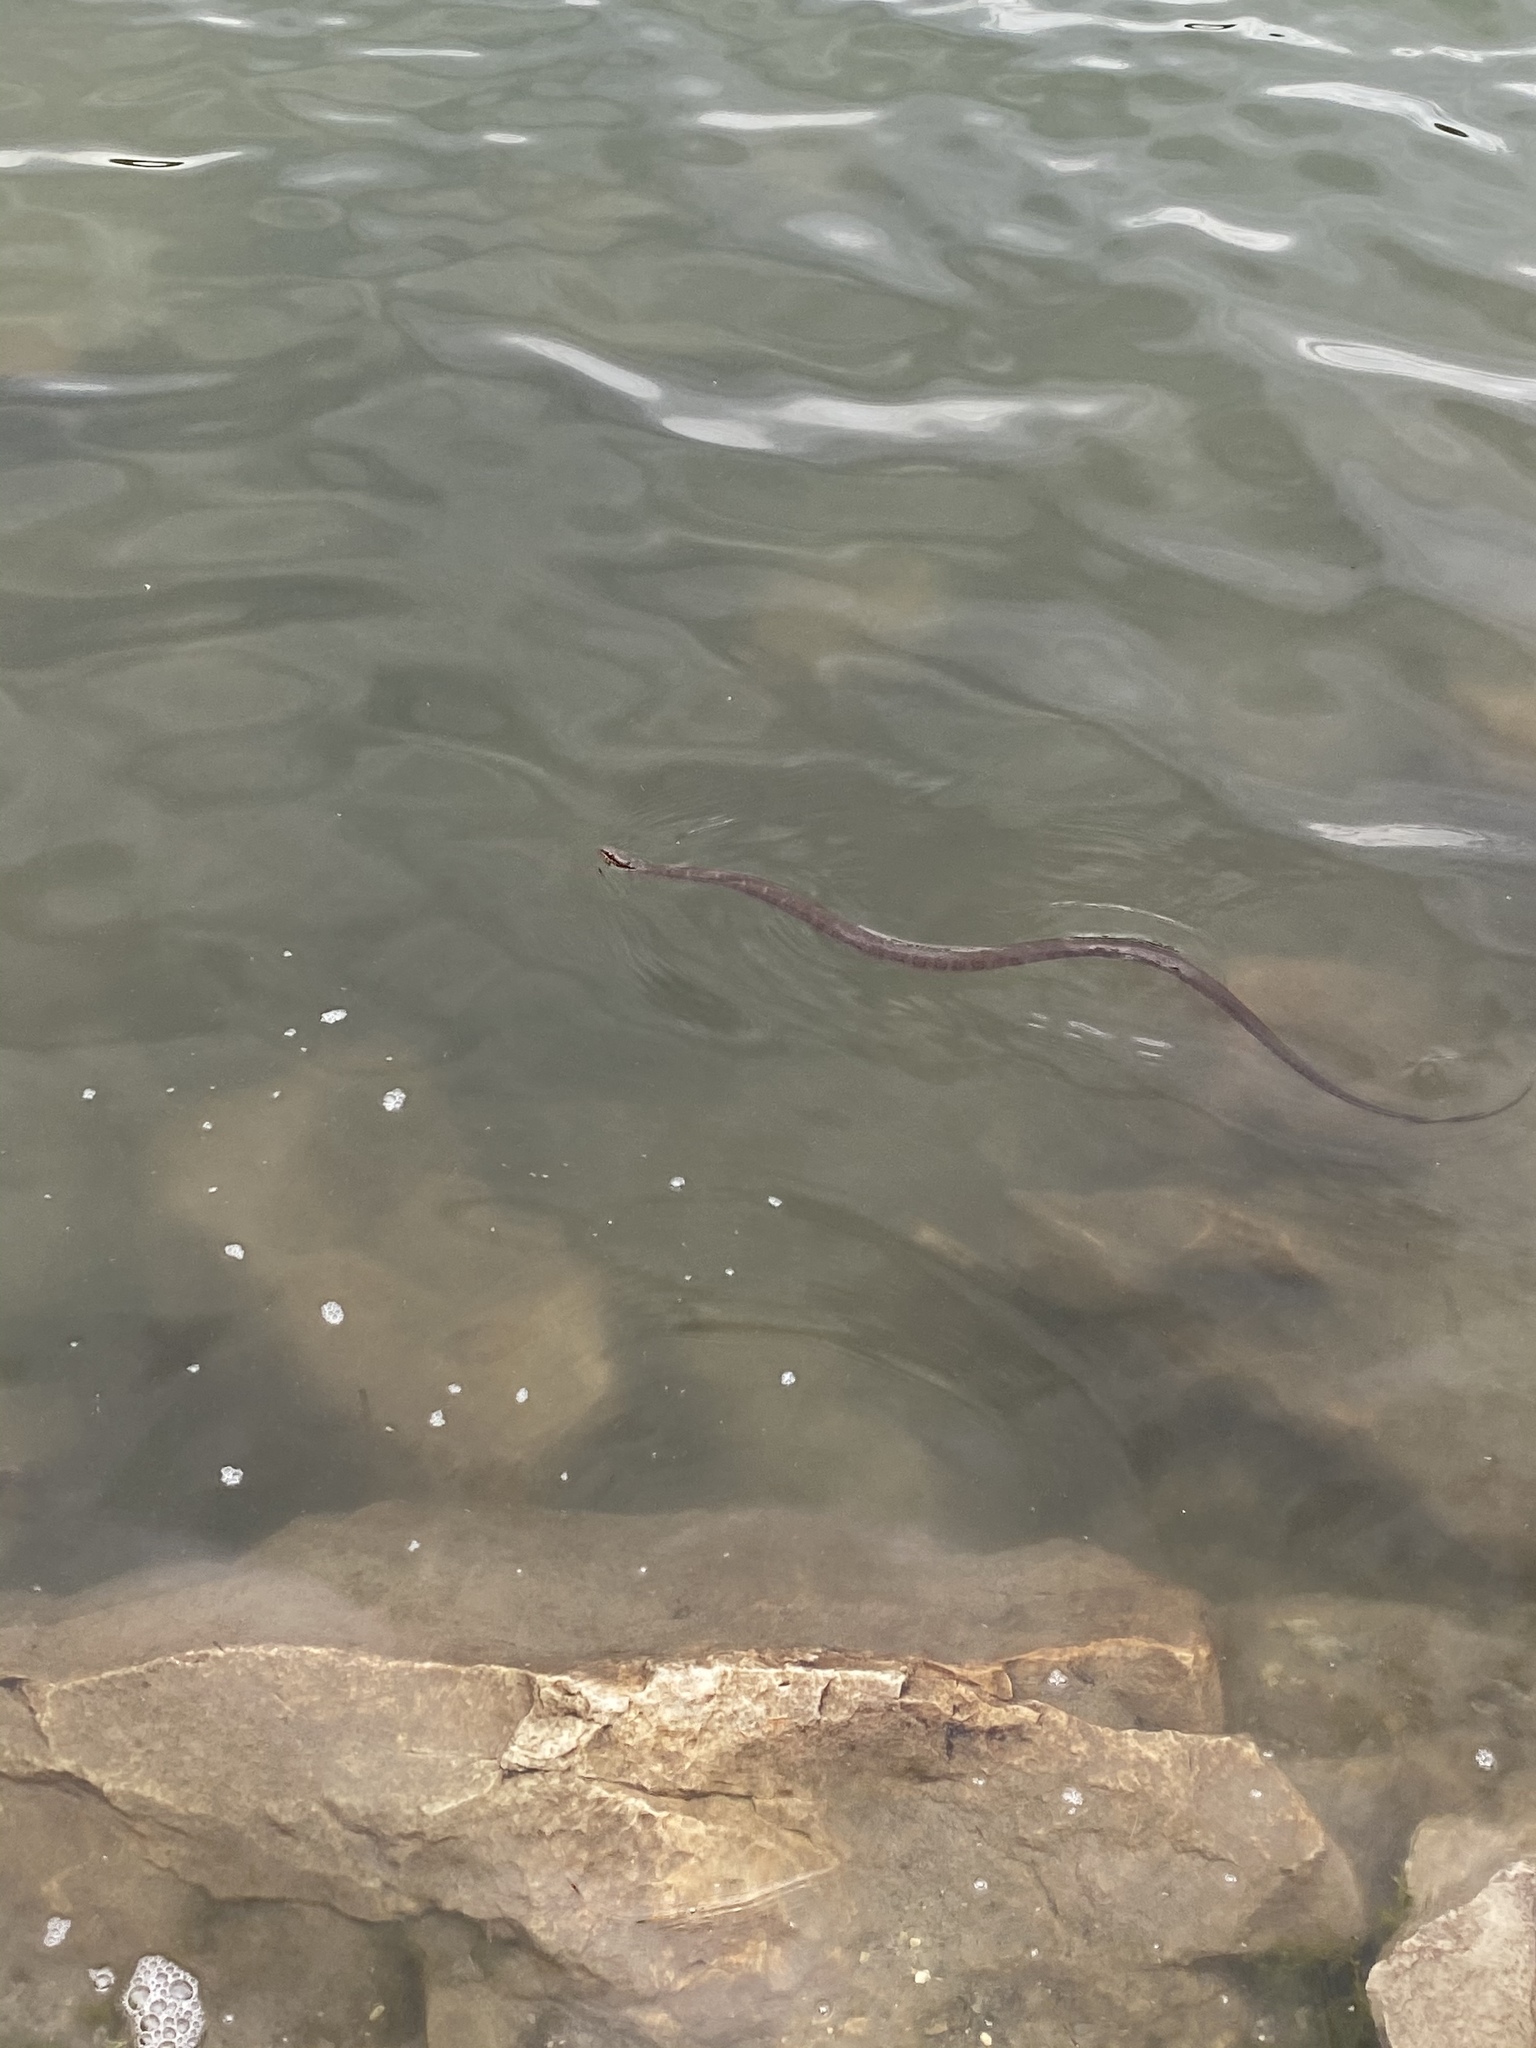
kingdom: Animalia
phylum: Chordata
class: Squamata
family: Colubridae
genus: Nerodia
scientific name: Nerodia sipedon
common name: Northern water snake
